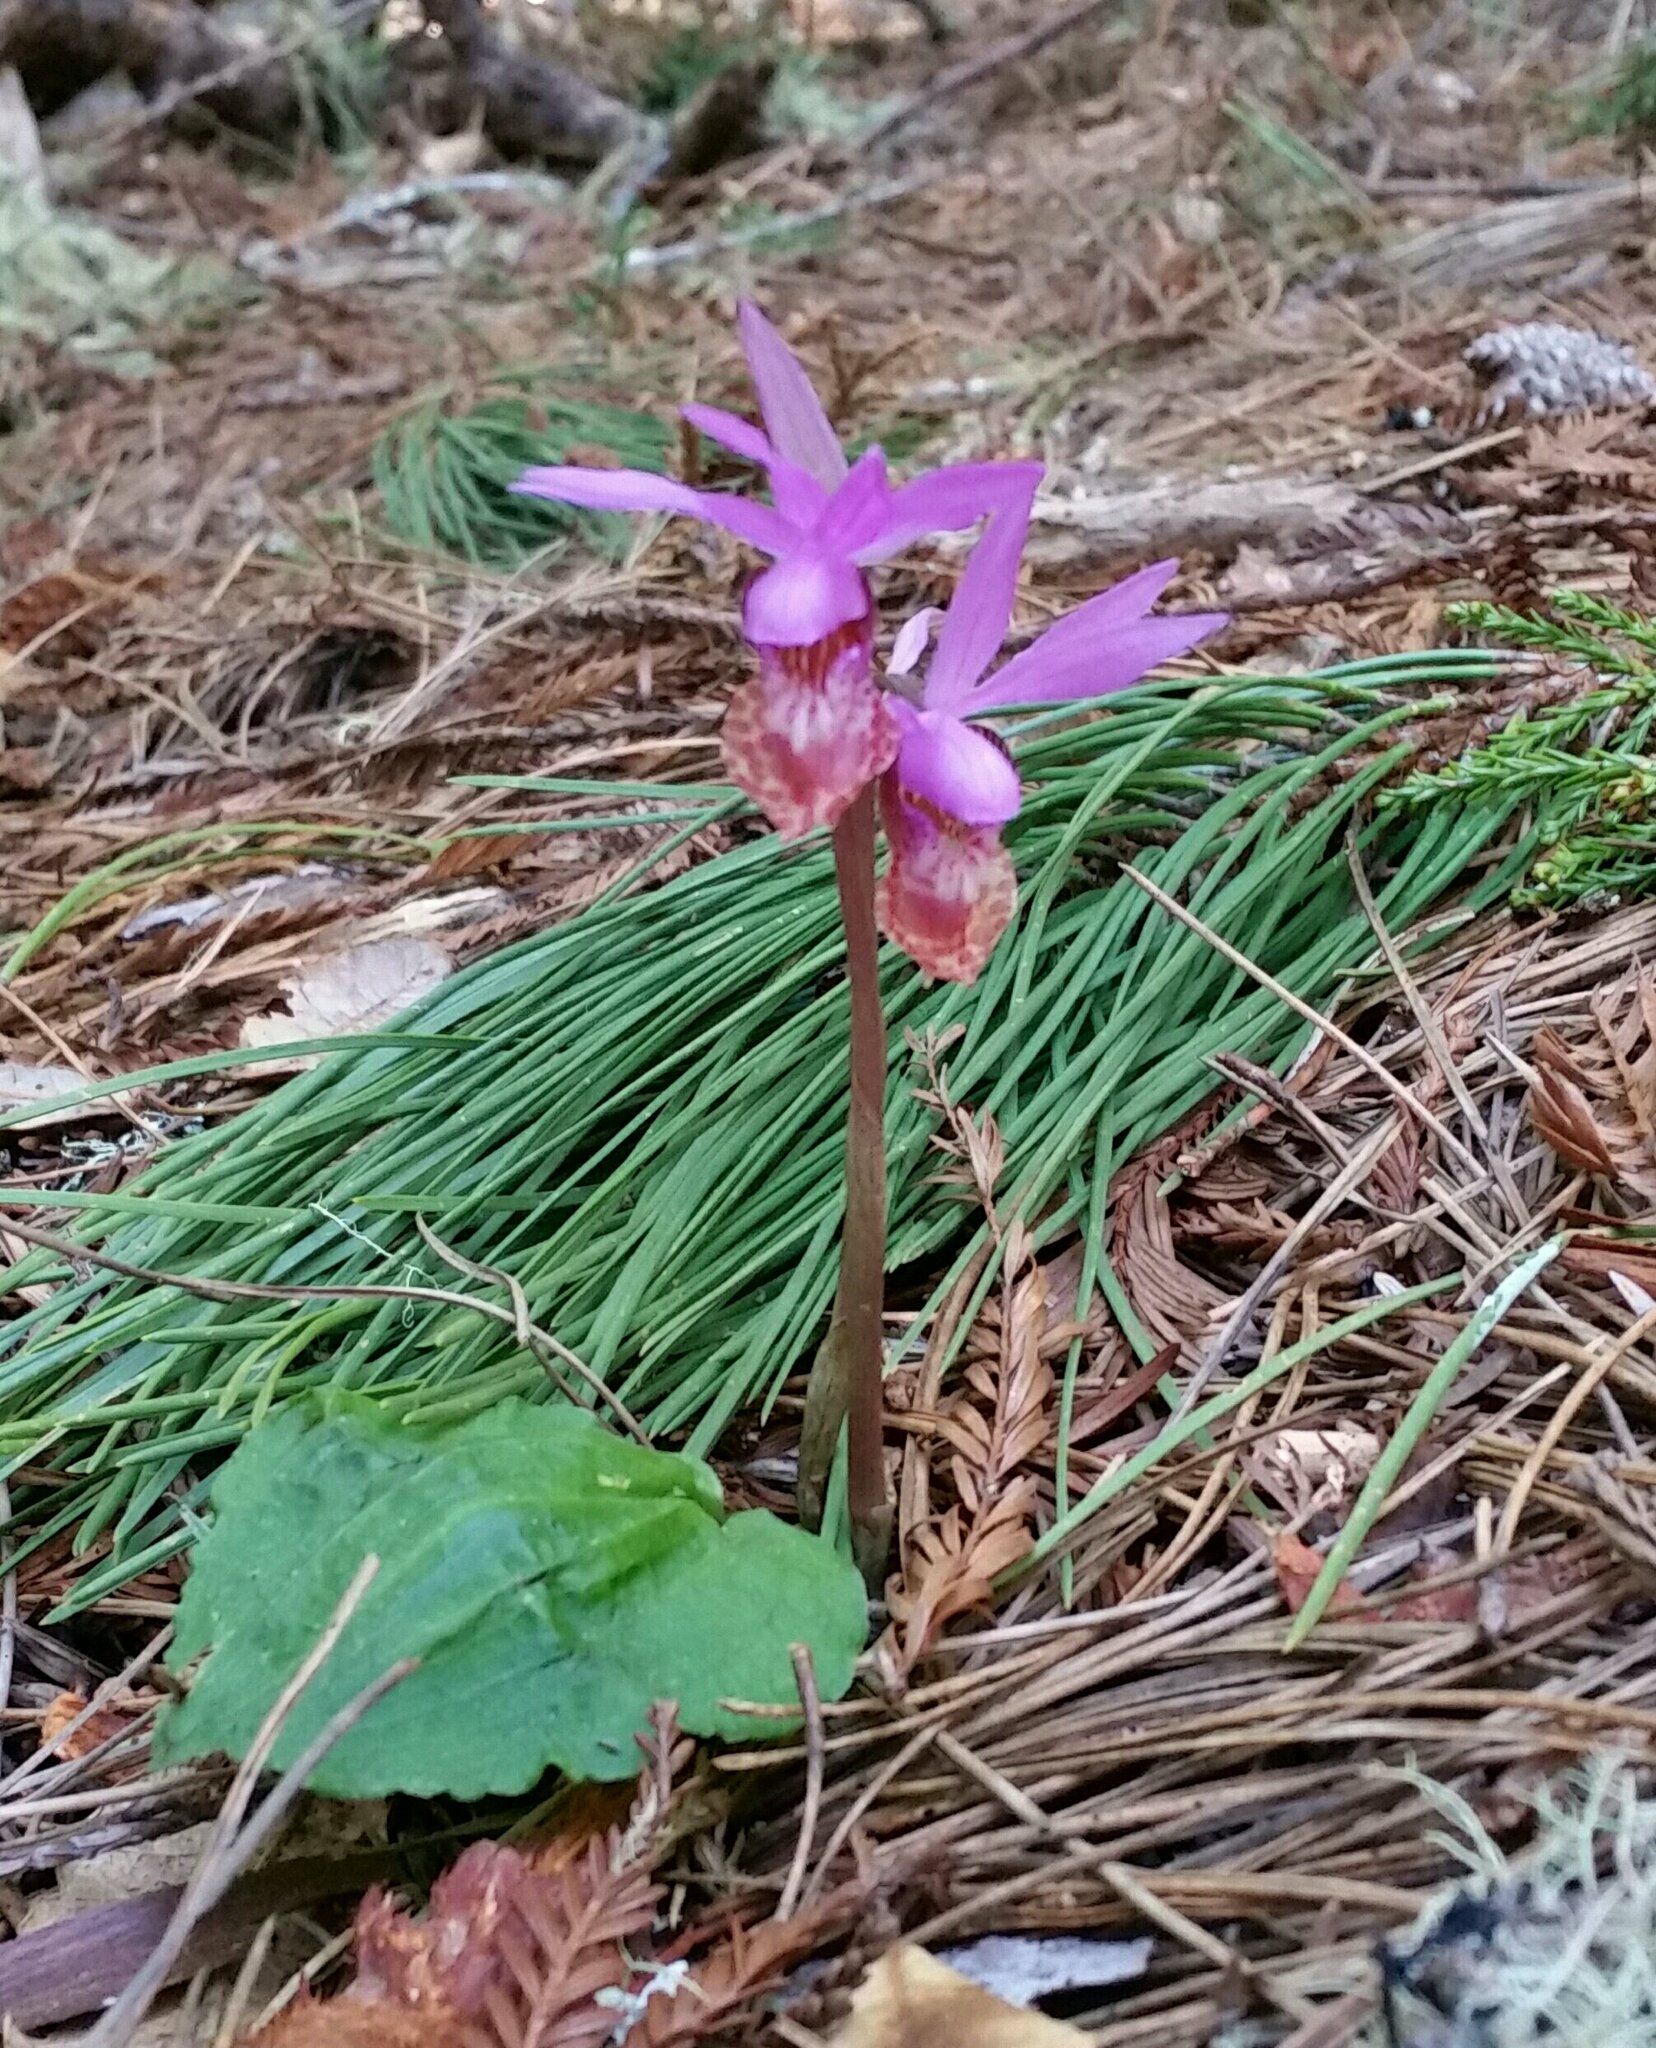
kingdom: Plantae
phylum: Tracheophyta
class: Liliopsida
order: Asparagales
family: Orchidaceae
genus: Calypso
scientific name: Calypso bulbosa
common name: Calypso
